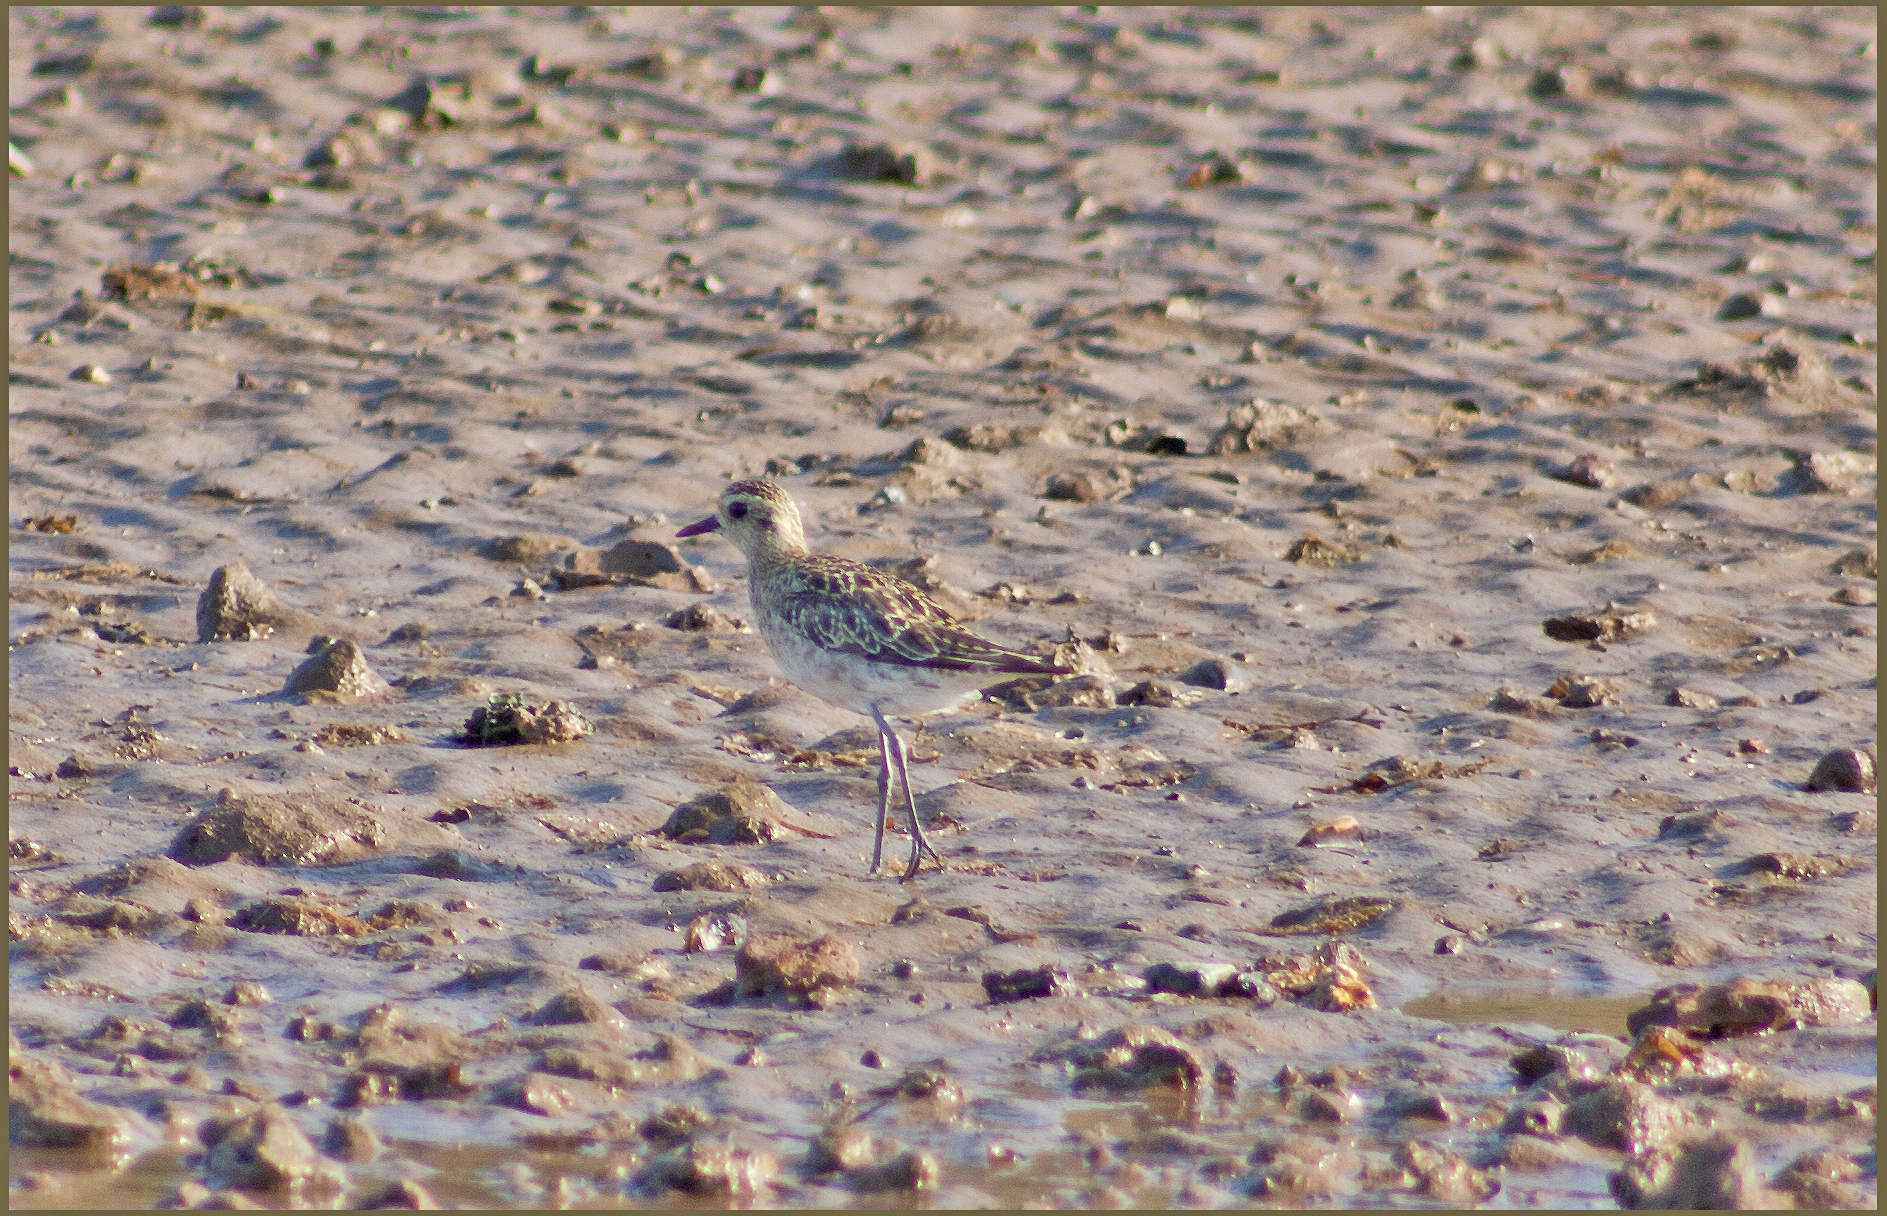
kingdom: Animalia
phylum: Chordata
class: Aves
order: Charadriiformes
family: Charadriidae
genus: Pluvialis
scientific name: Pluvialis fulva
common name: Pacific golden plover
